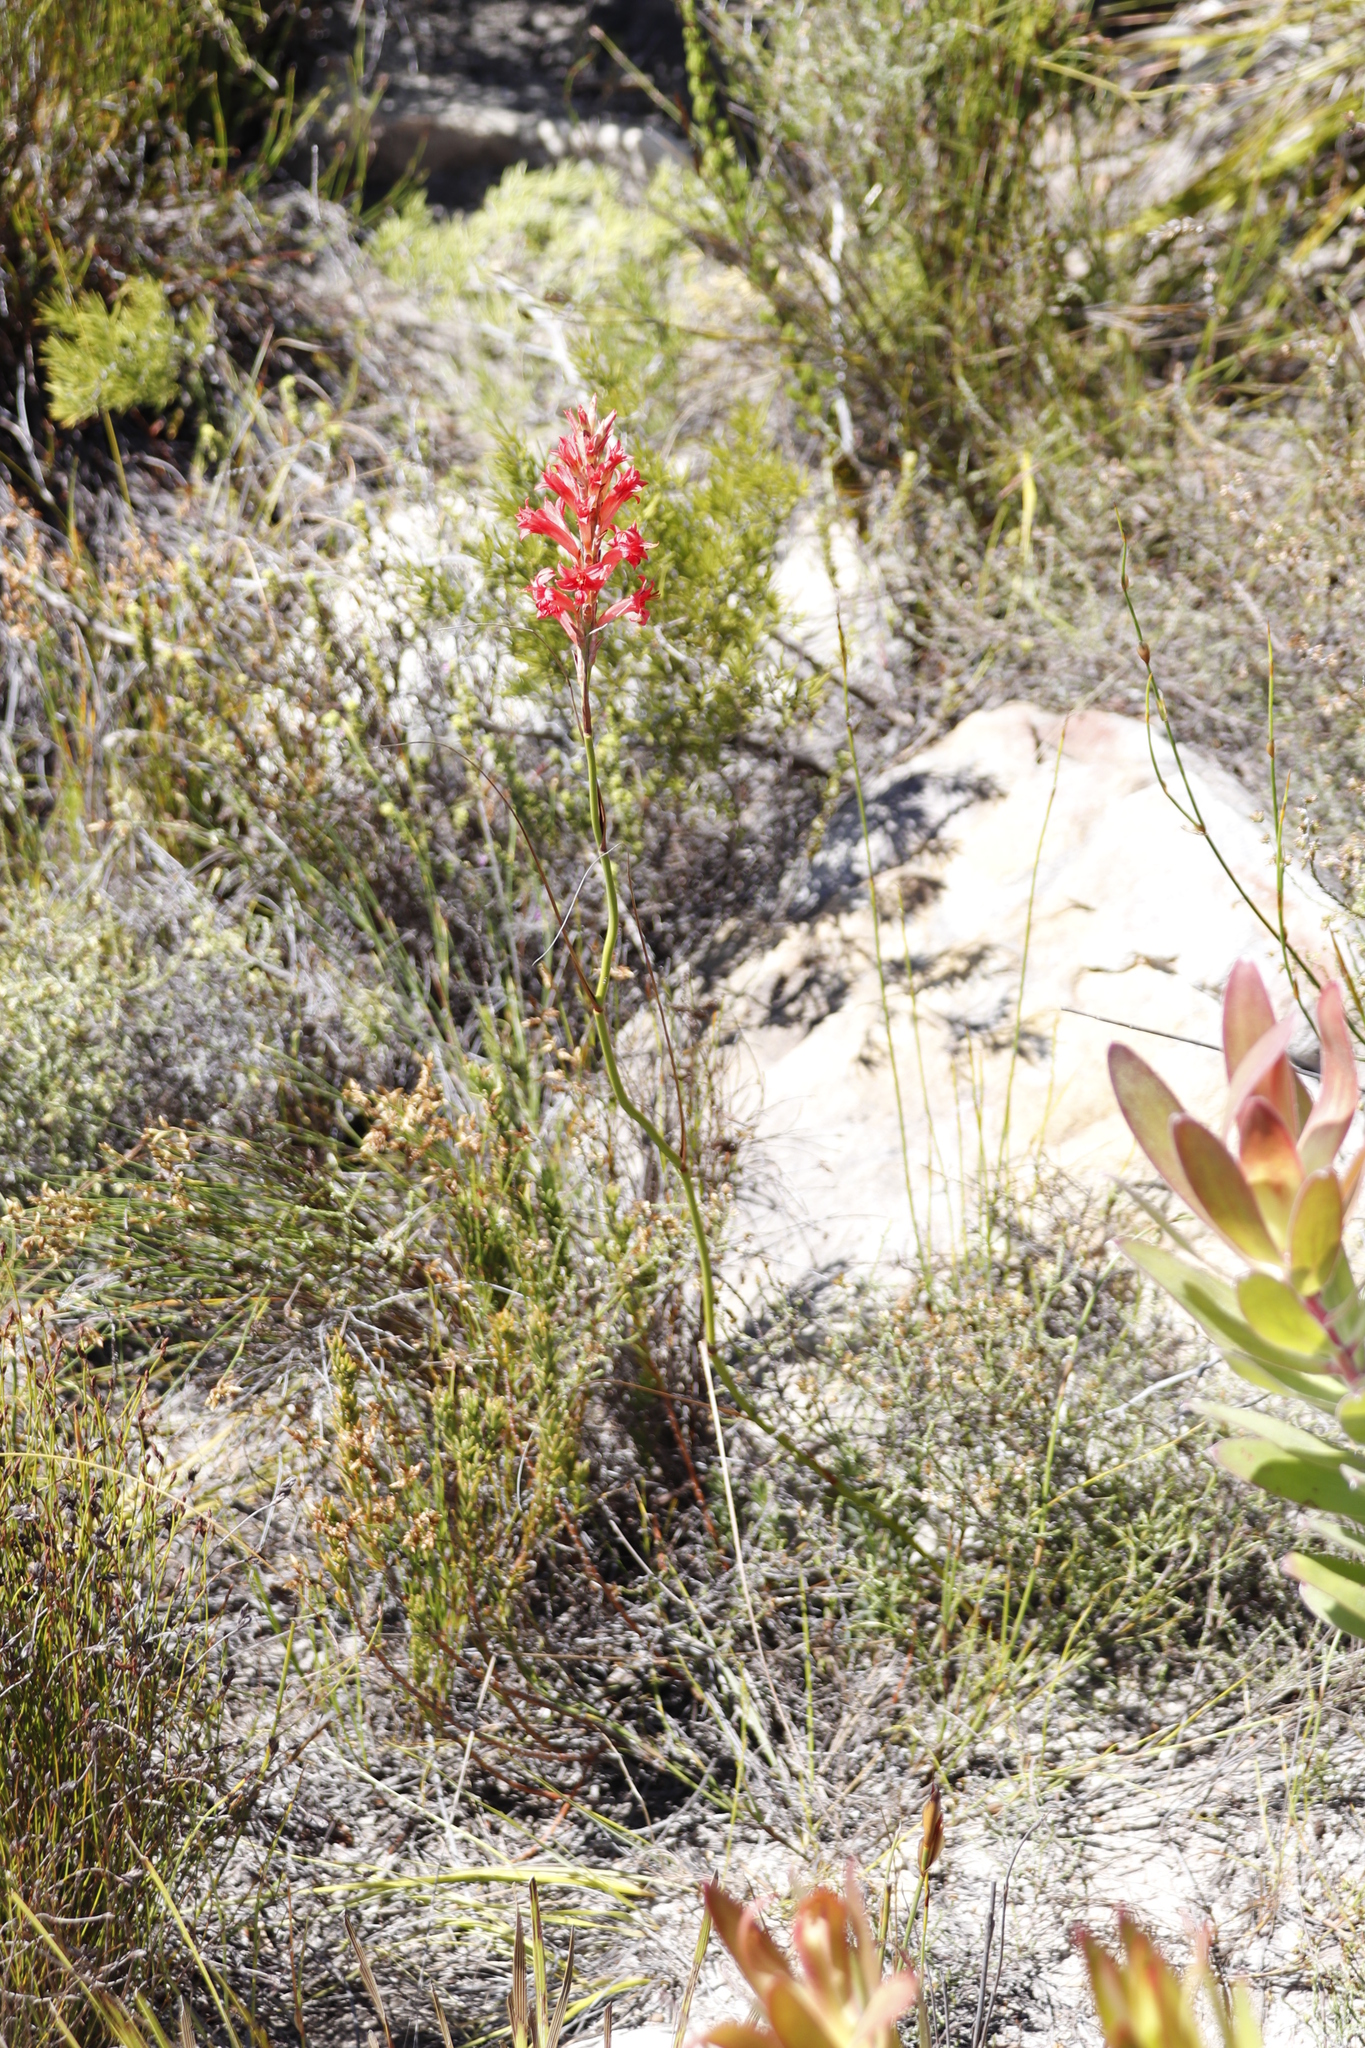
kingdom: Plantae
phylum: Tracheophyta
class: Liliopsida
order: Asparagales
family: Iridaceae
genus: Tritoniopsis
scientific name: Tritoniopsis triticea
